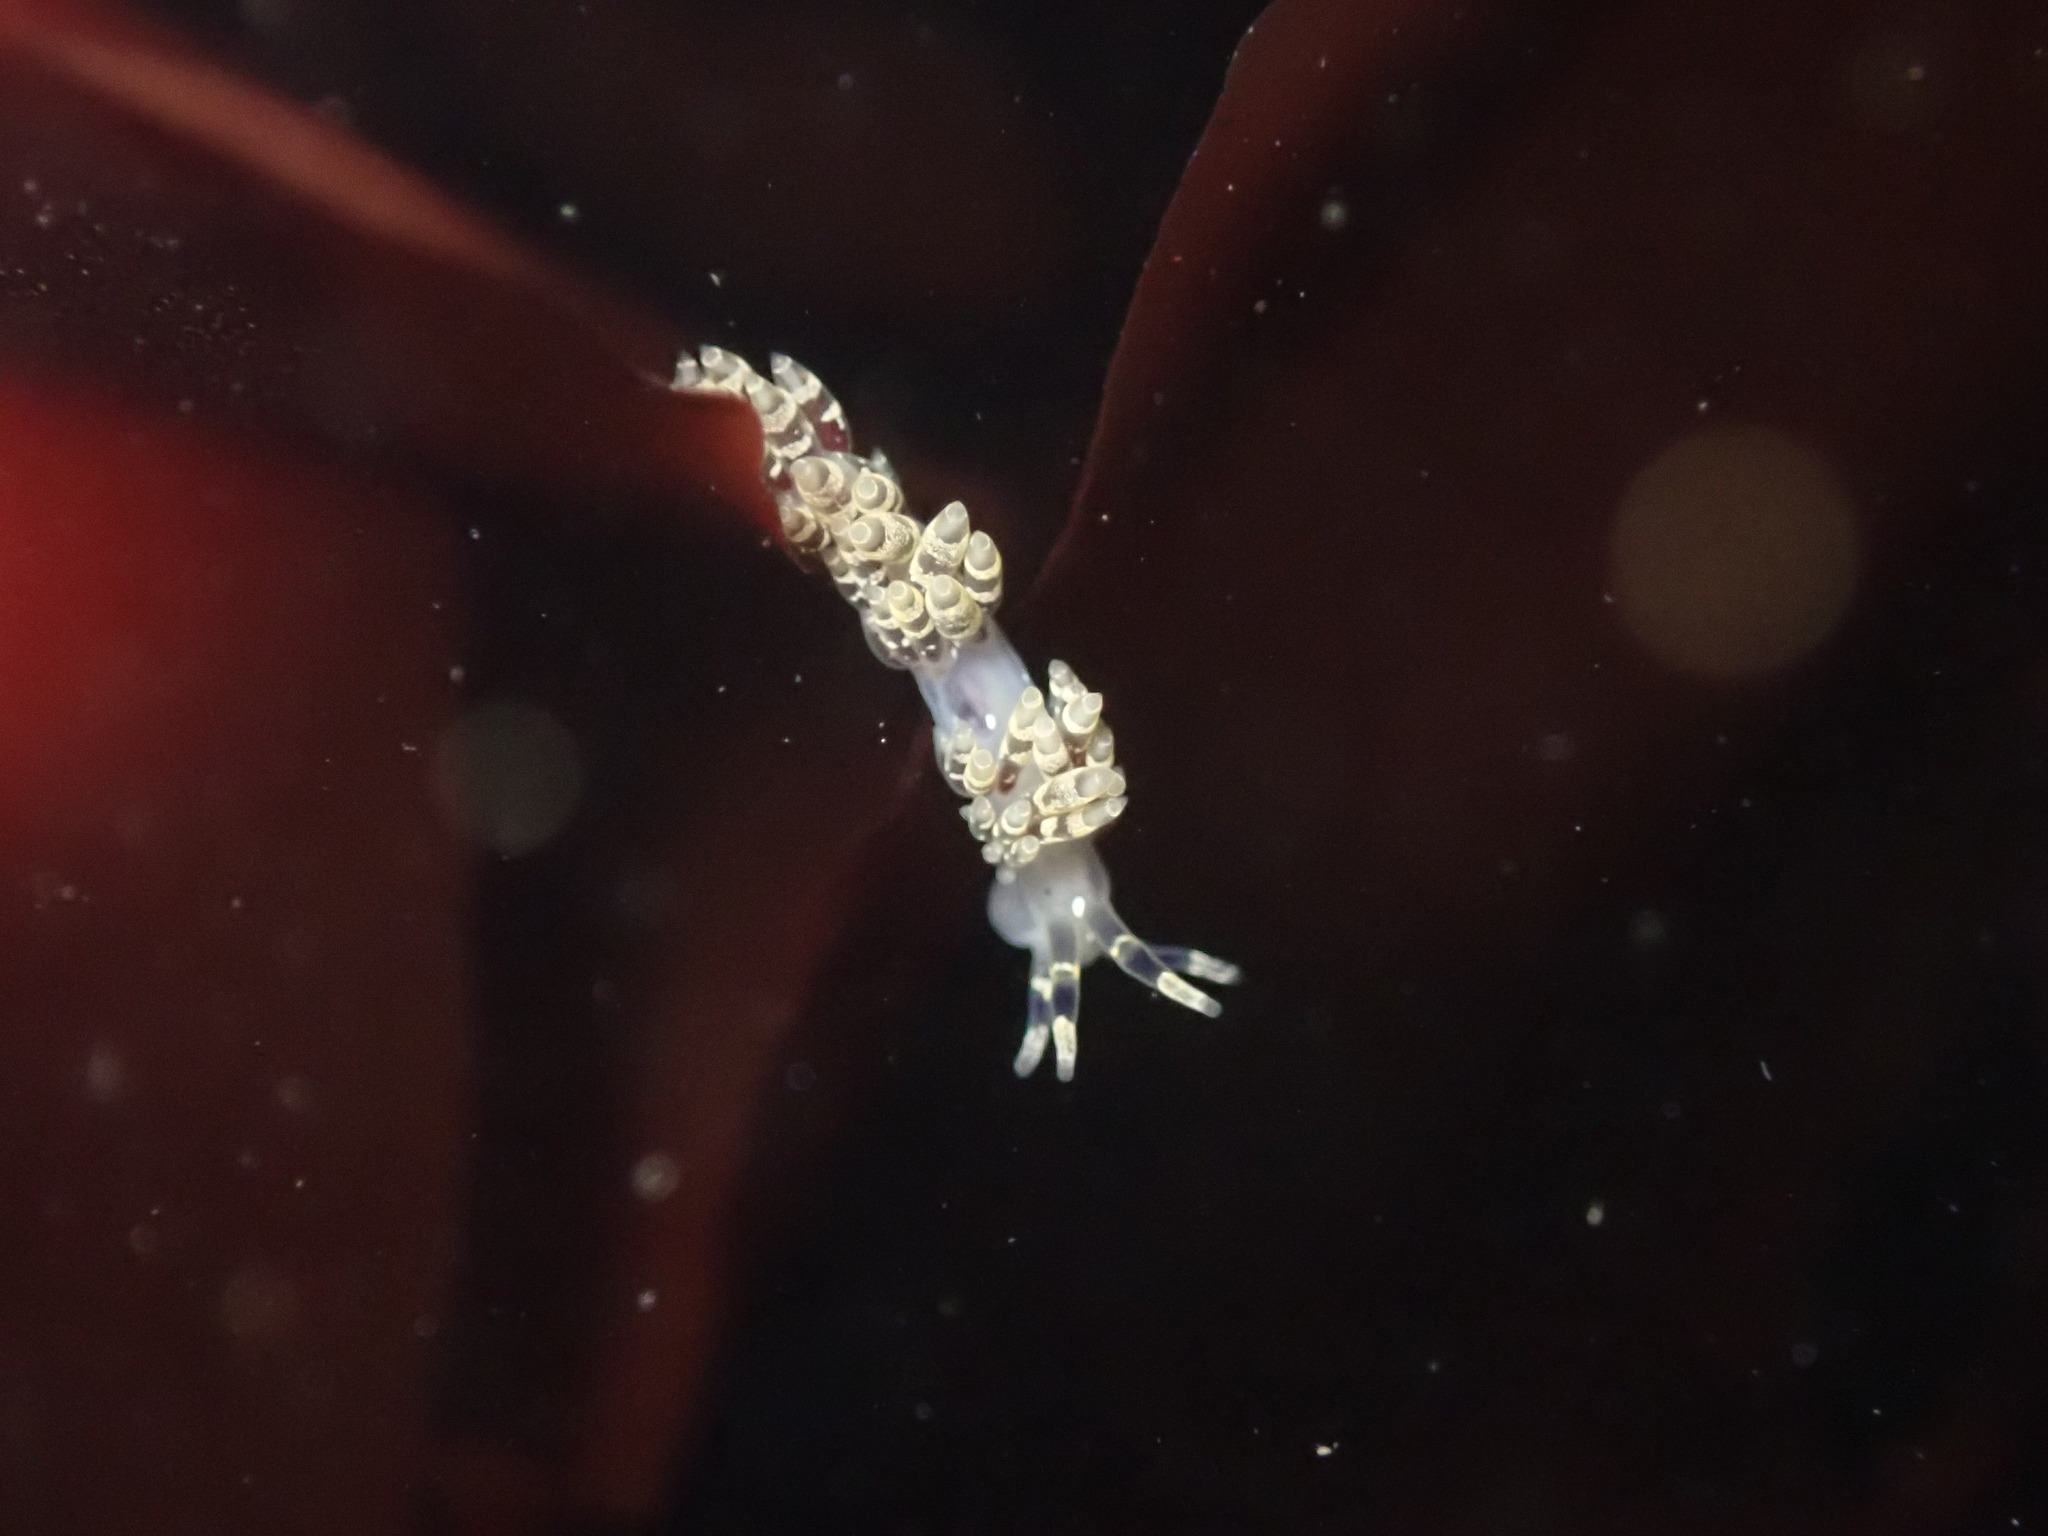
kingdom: Animalia
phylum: Mollusca
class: Gastropoda
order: Nudibranchia
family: Abronicidae
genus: Abronica
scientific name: Abronica abronia
